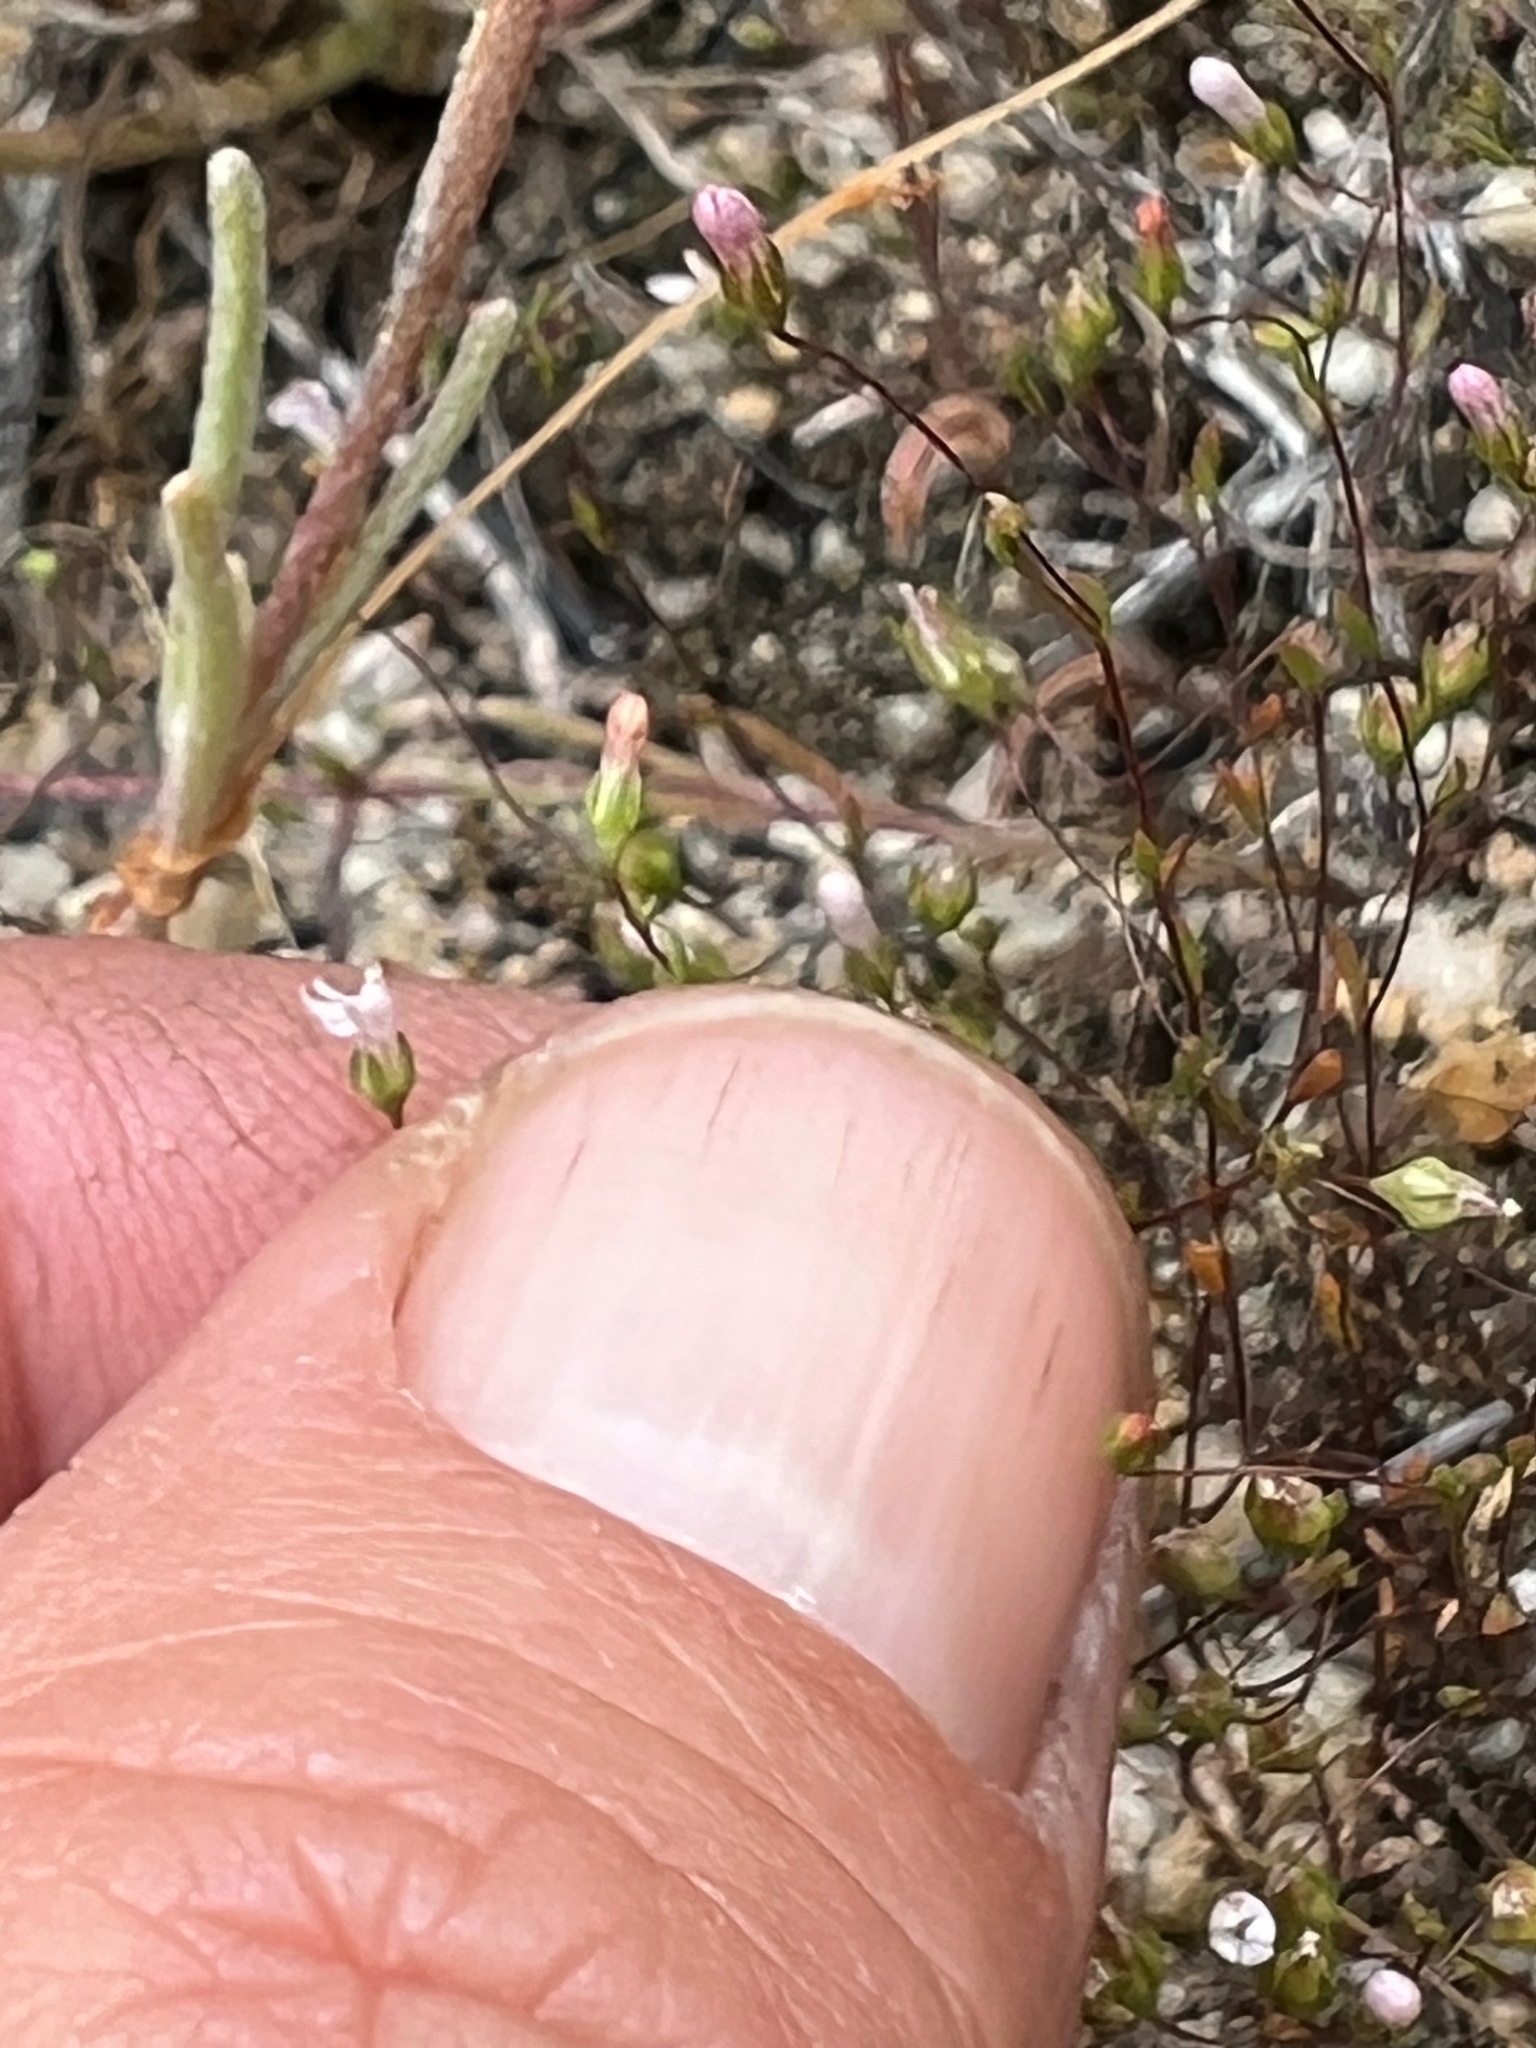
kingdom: Plantae
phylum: Tracheophyta
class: Magnoliopsida
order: Asterales
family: Campanulaceae
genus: Nemacladus
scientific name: Nemacladus secundiflorus
